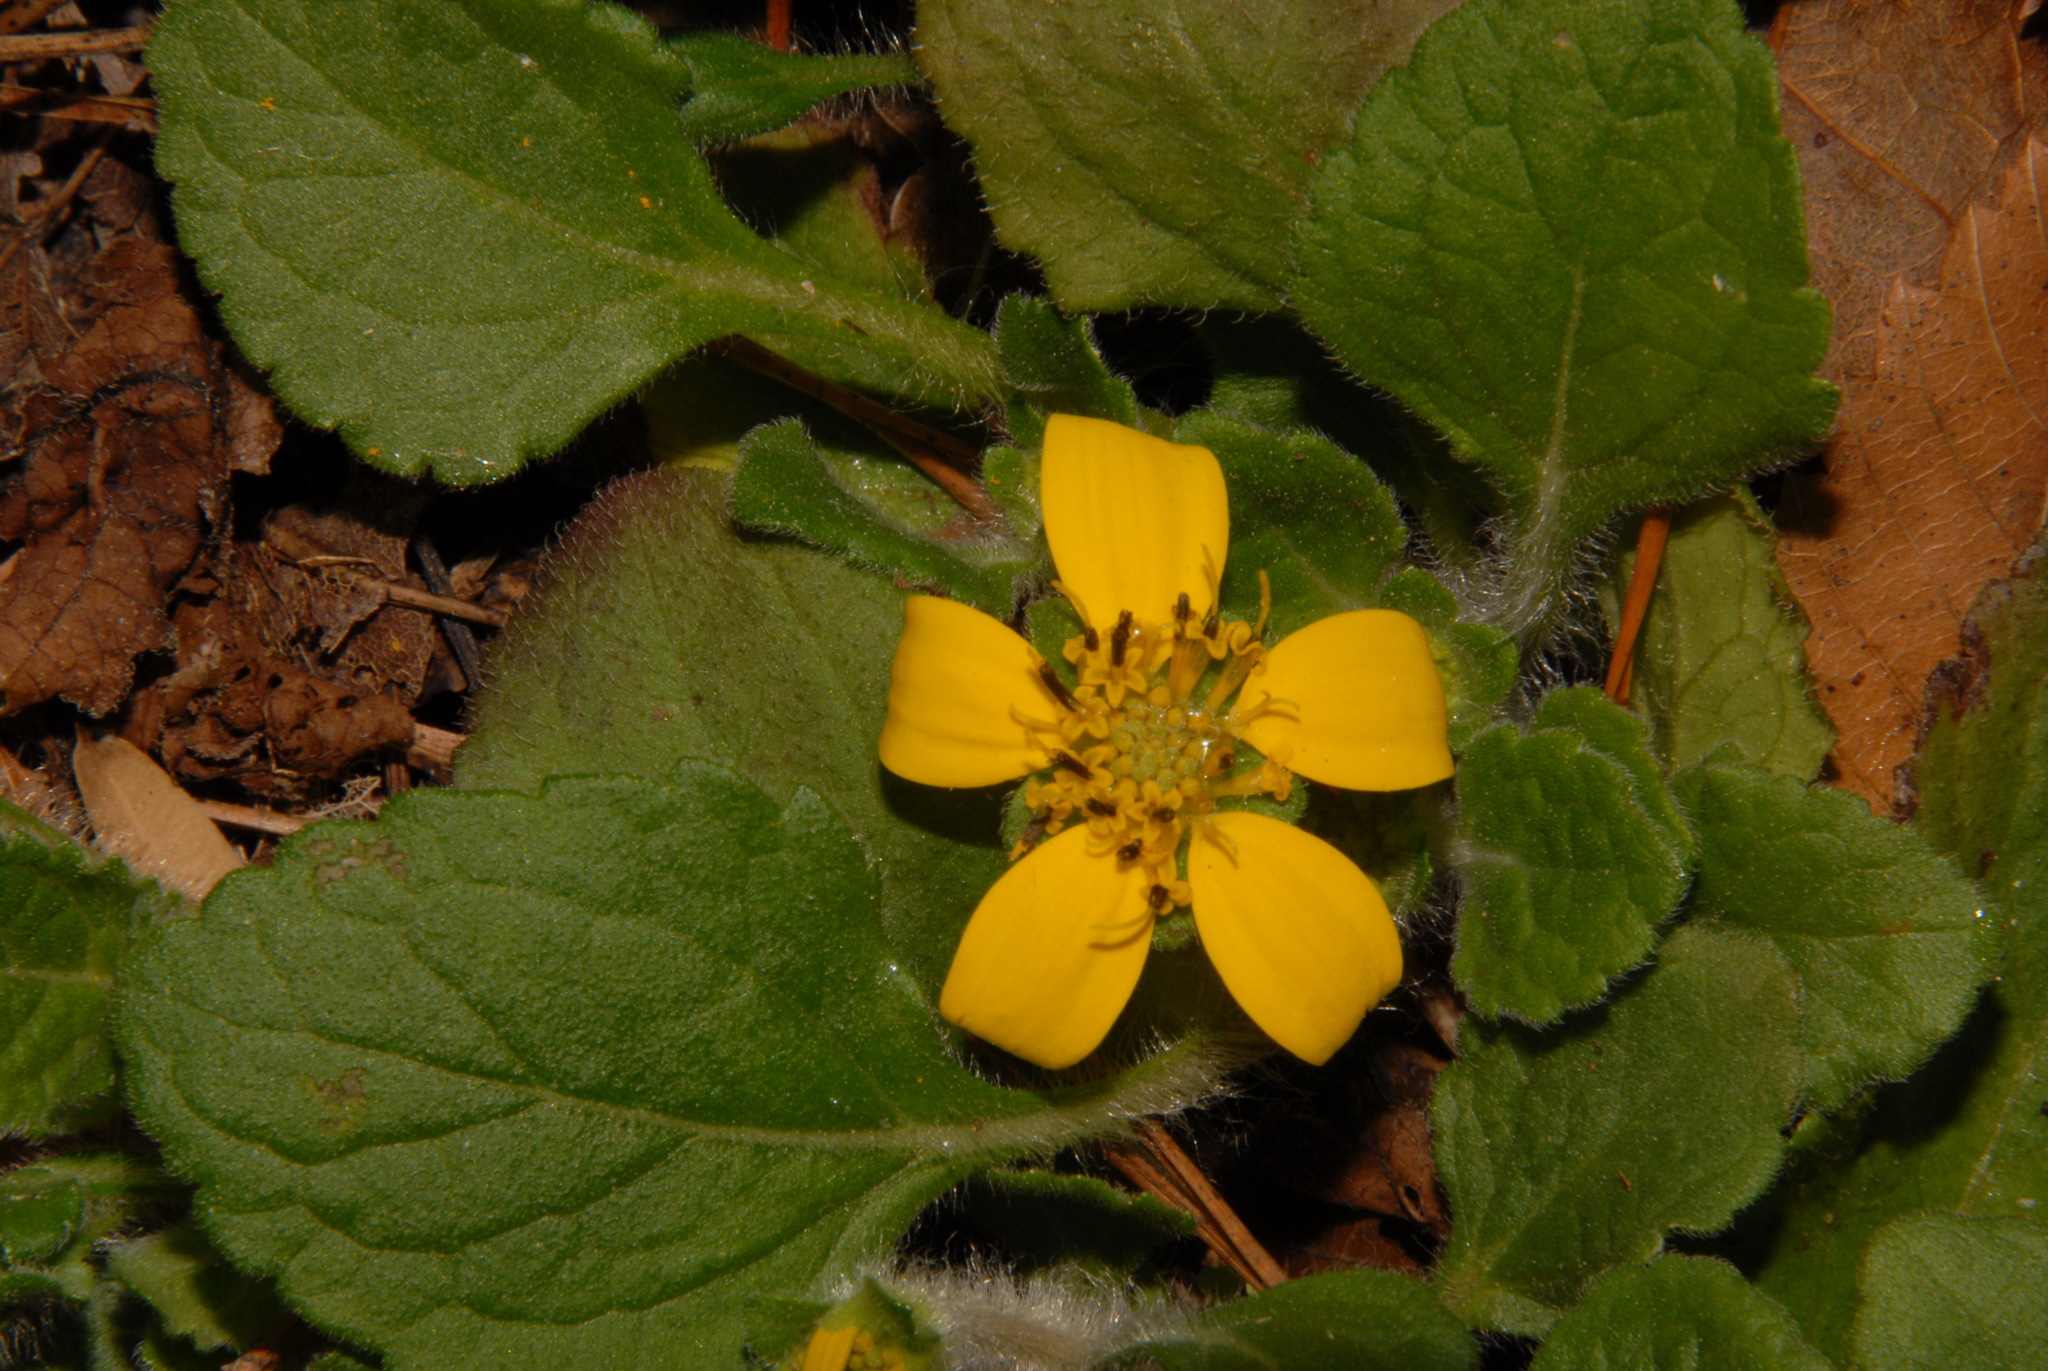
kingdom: Plantae
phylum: Tracheophyta
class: Magnoliopsida
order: Asterales
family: Asteraceae
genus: Chrysogonum
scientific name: Chrysogonum virginianum
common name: Golden-knee
